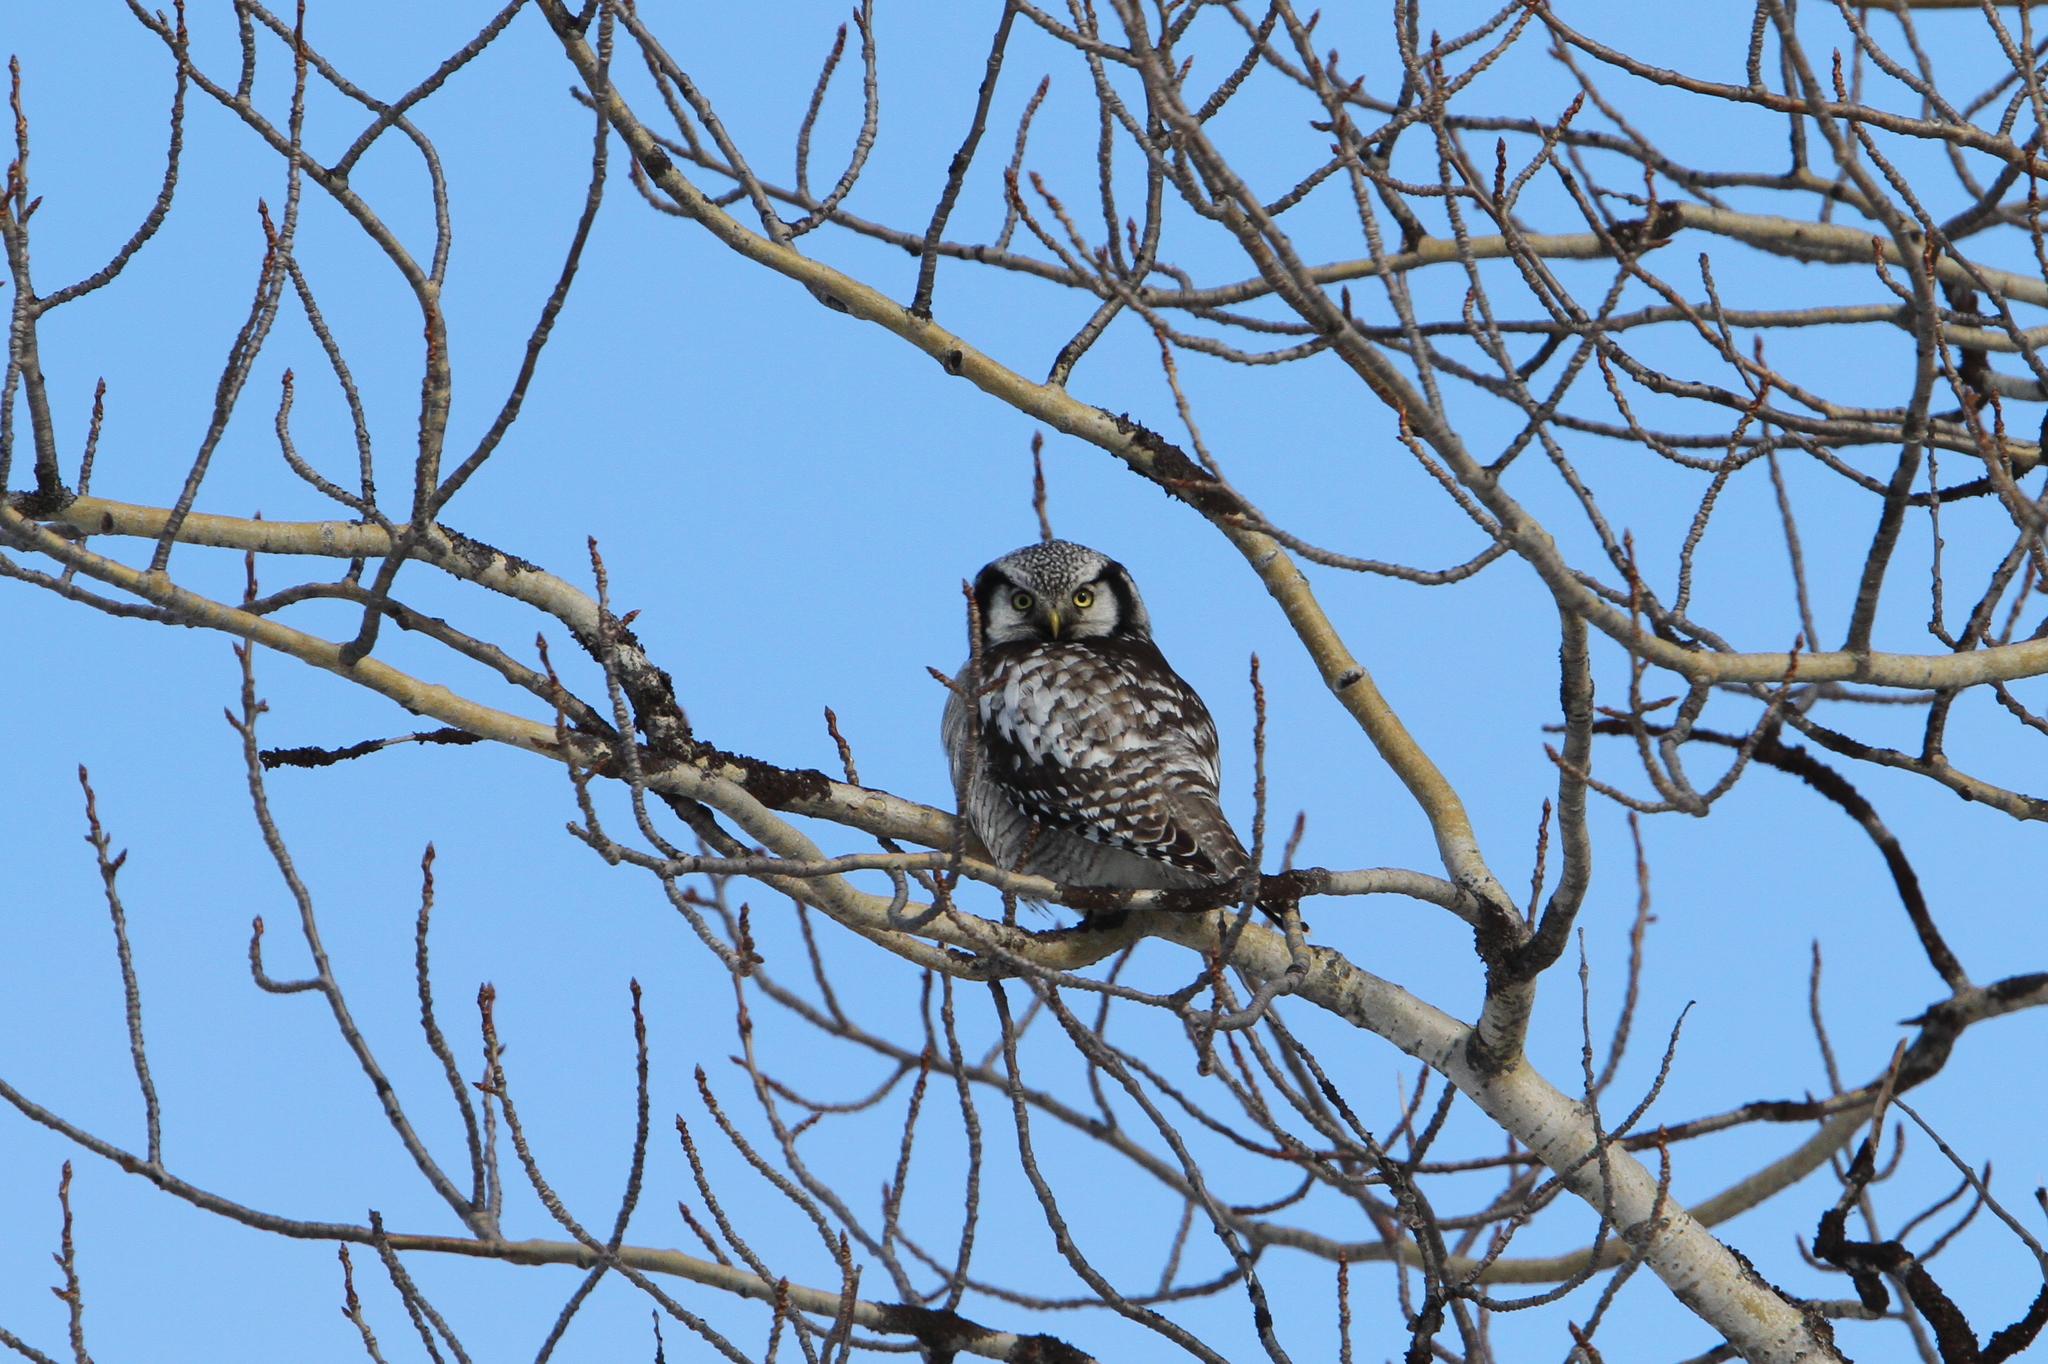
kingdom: Animalia
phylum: Chordata
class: Aves
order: Strigiformes
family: Strigidae
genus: Surnia
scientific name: Surnia ulula
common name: Northern hawk-owl
